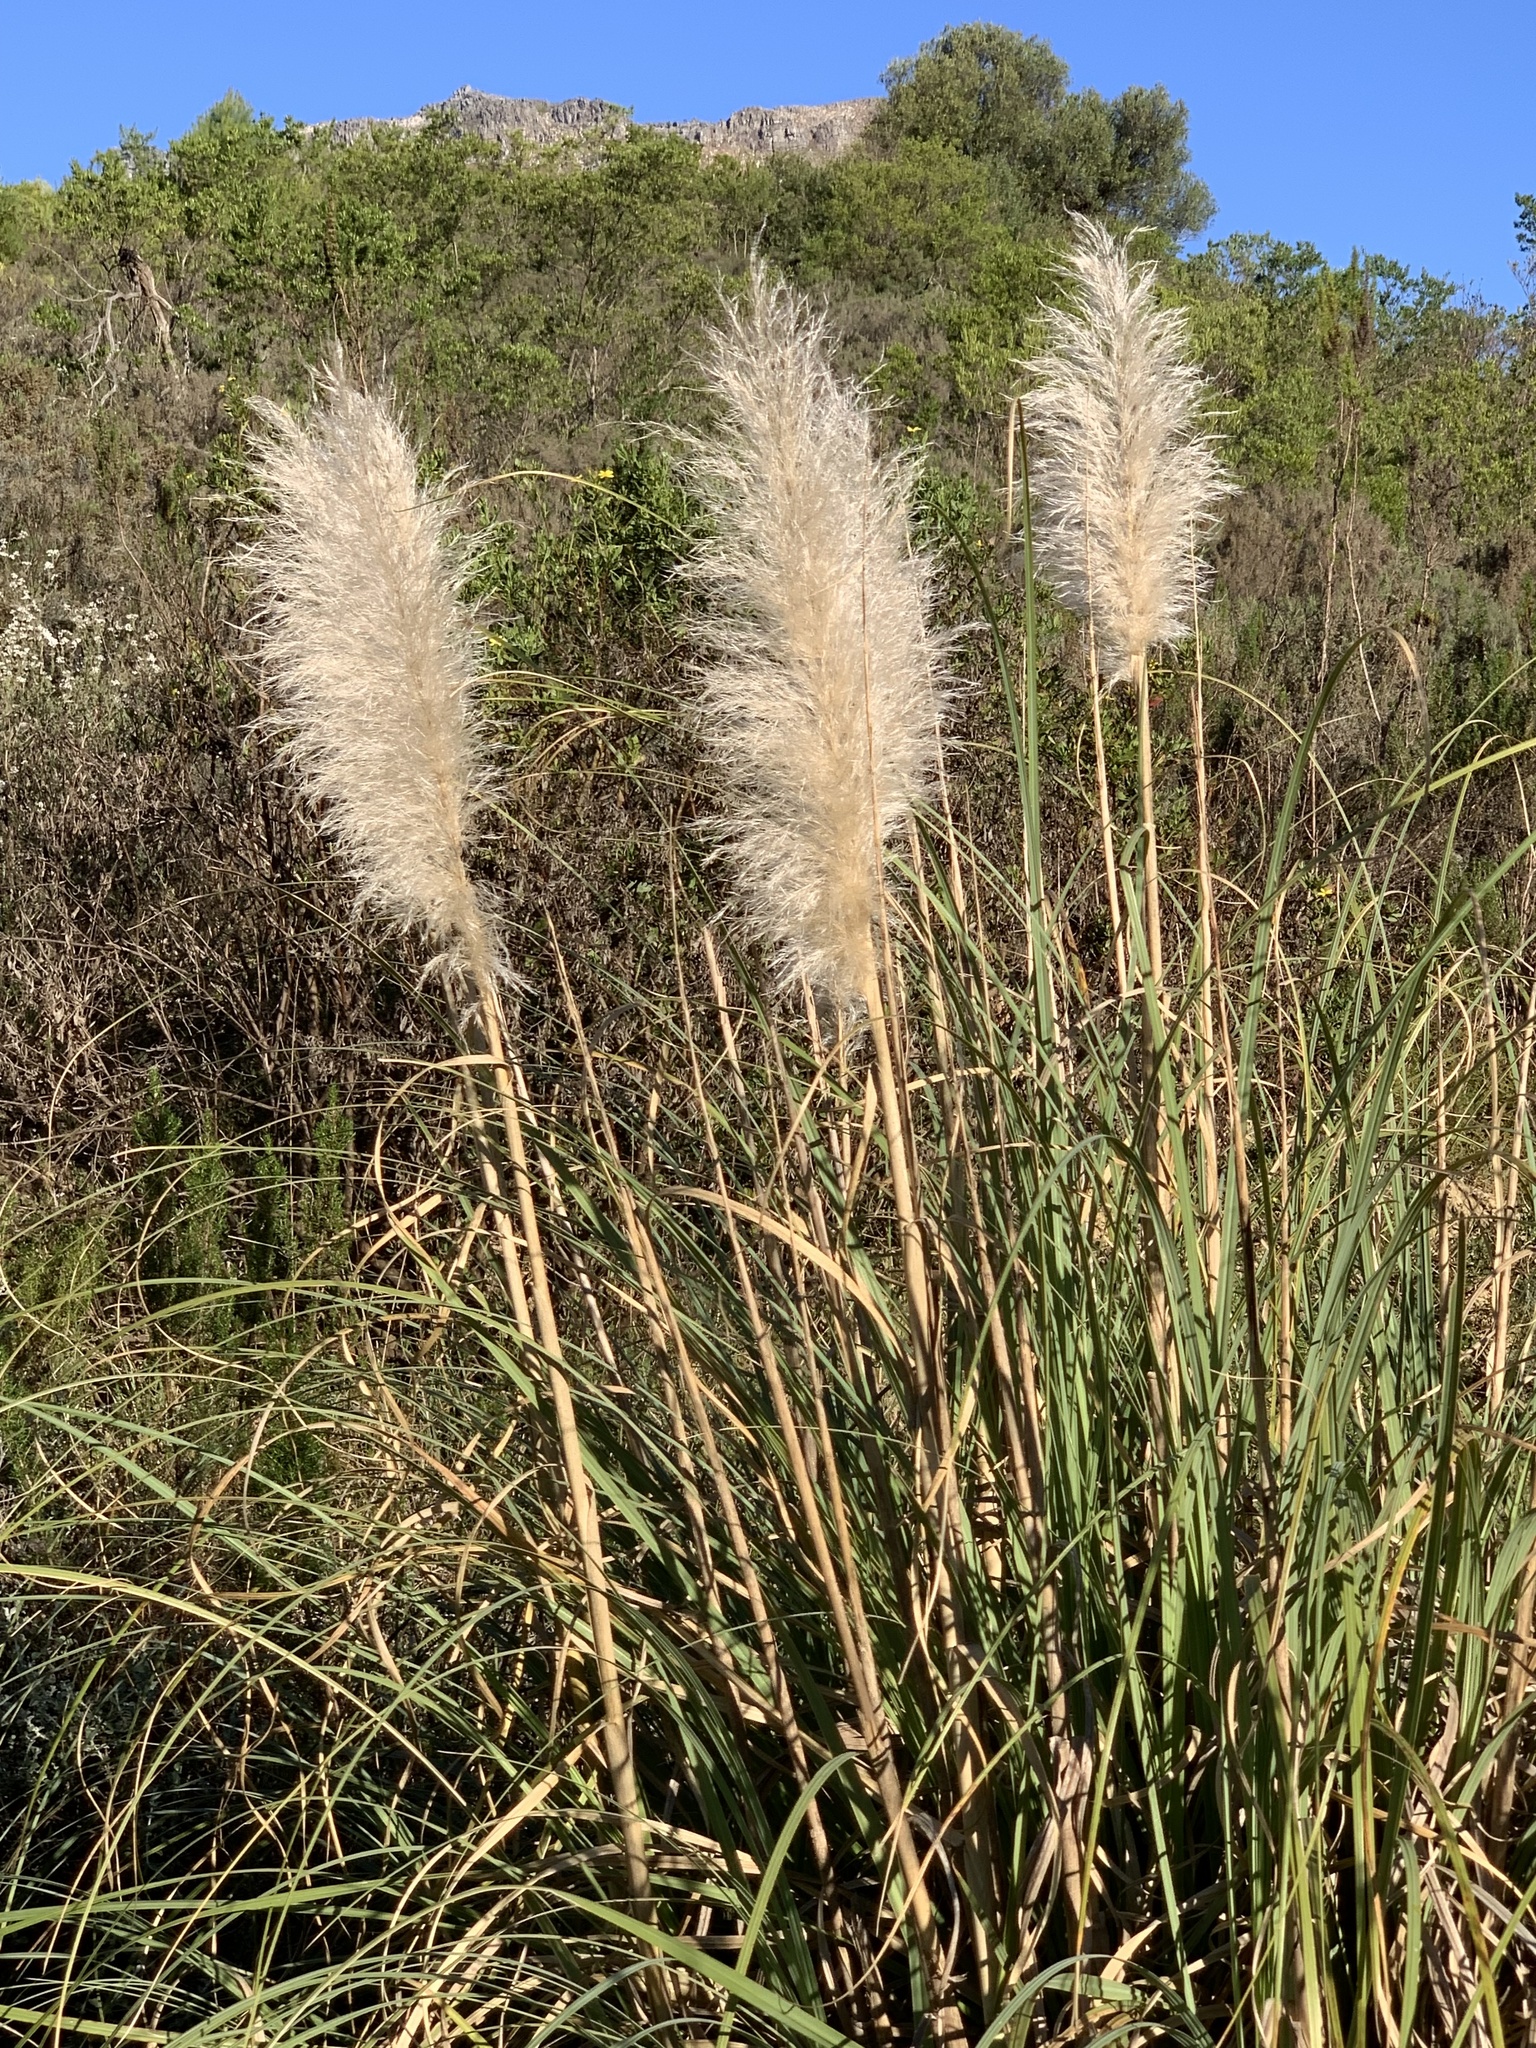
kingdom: Plantae
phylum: Tracheophyta
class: Liliopsida
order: Poales
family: Poaceae
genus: Cortaderia
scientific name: Cortaderia selloana
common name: Uruguayan pampas grass
